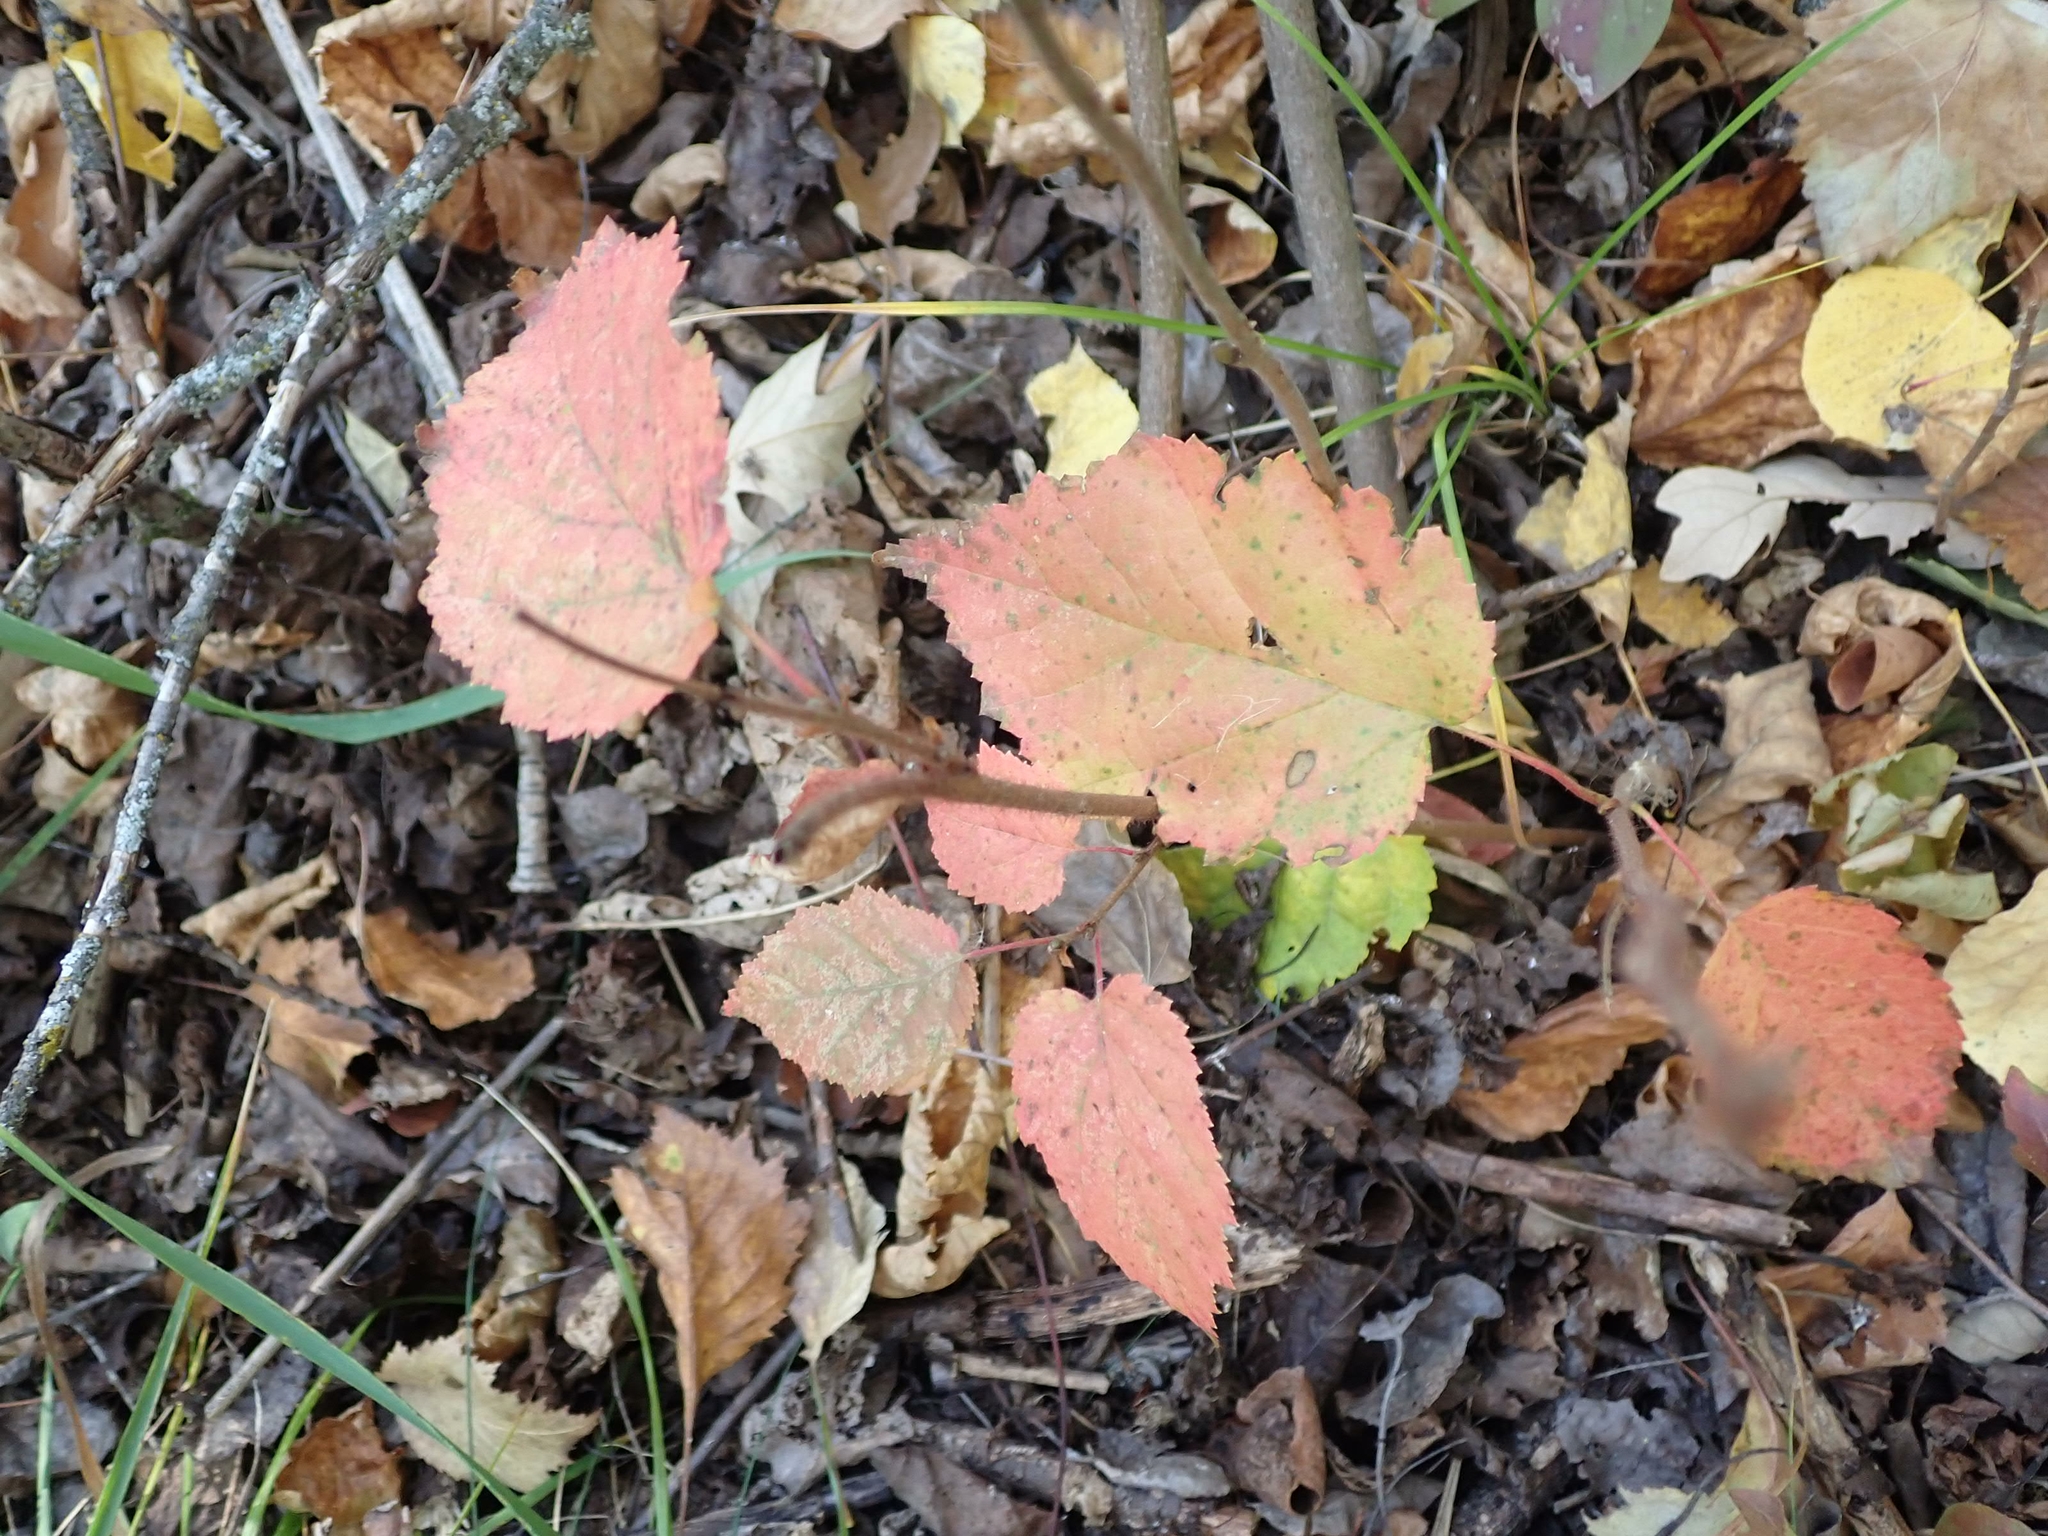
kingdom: Plantae
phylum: Tracheophyta
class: Magnoliopsida
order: Fagales
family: Betulaceae
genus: Corylus
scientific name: Corylus americana
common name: American hazel
